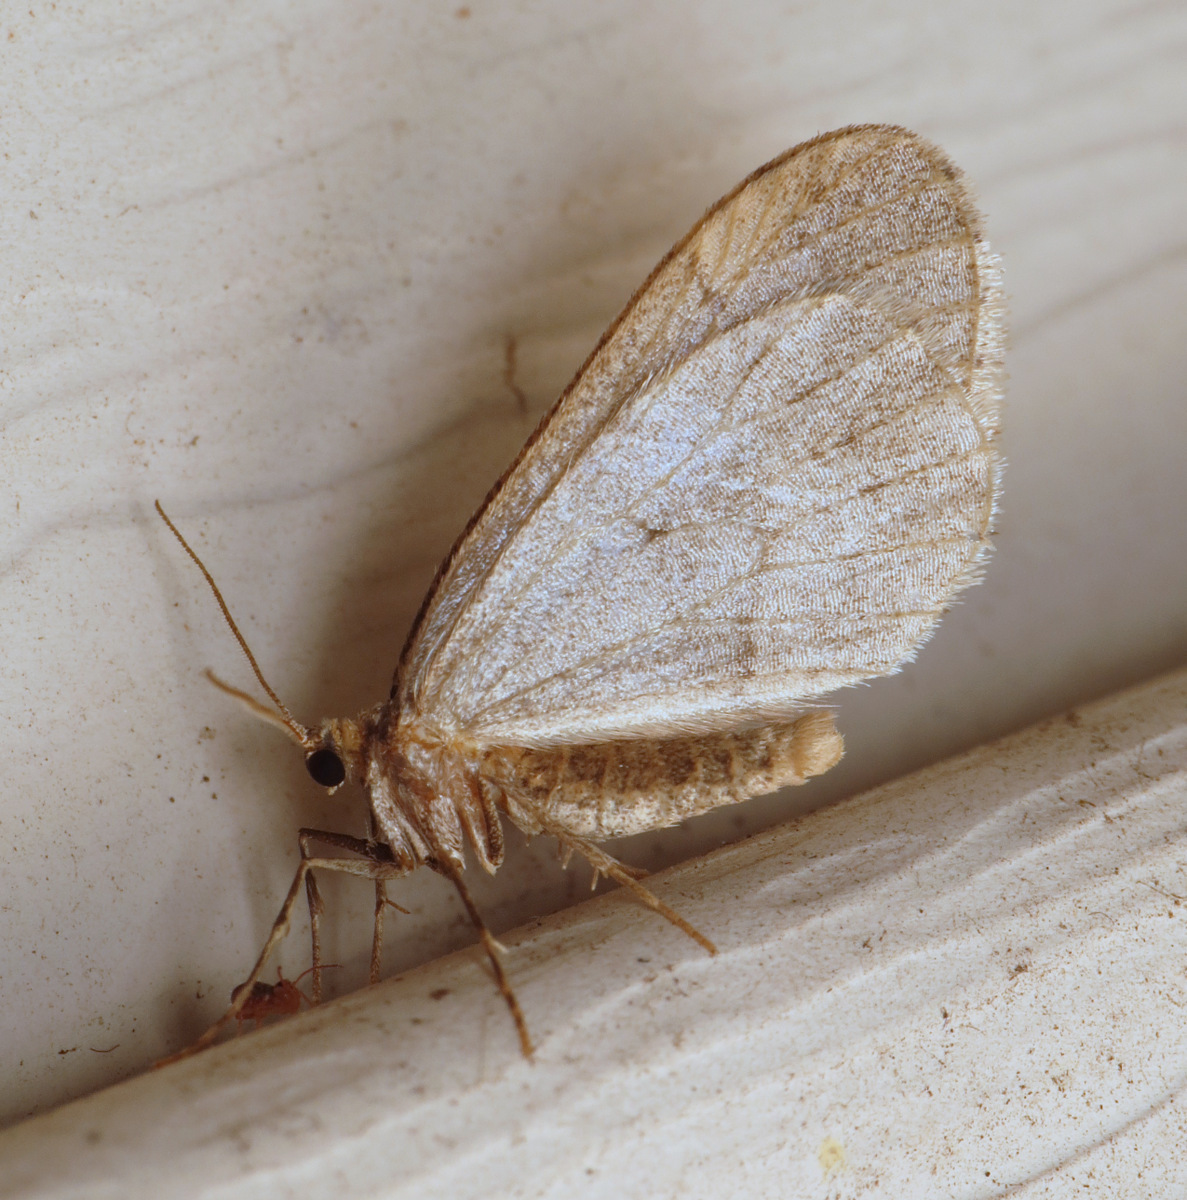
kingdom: Animalia
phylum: Arthropoda
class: Insecta
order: Lepidoptera
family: Geometridae
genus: Operophtera
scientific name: Operophtera brumata
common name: Winter moth
